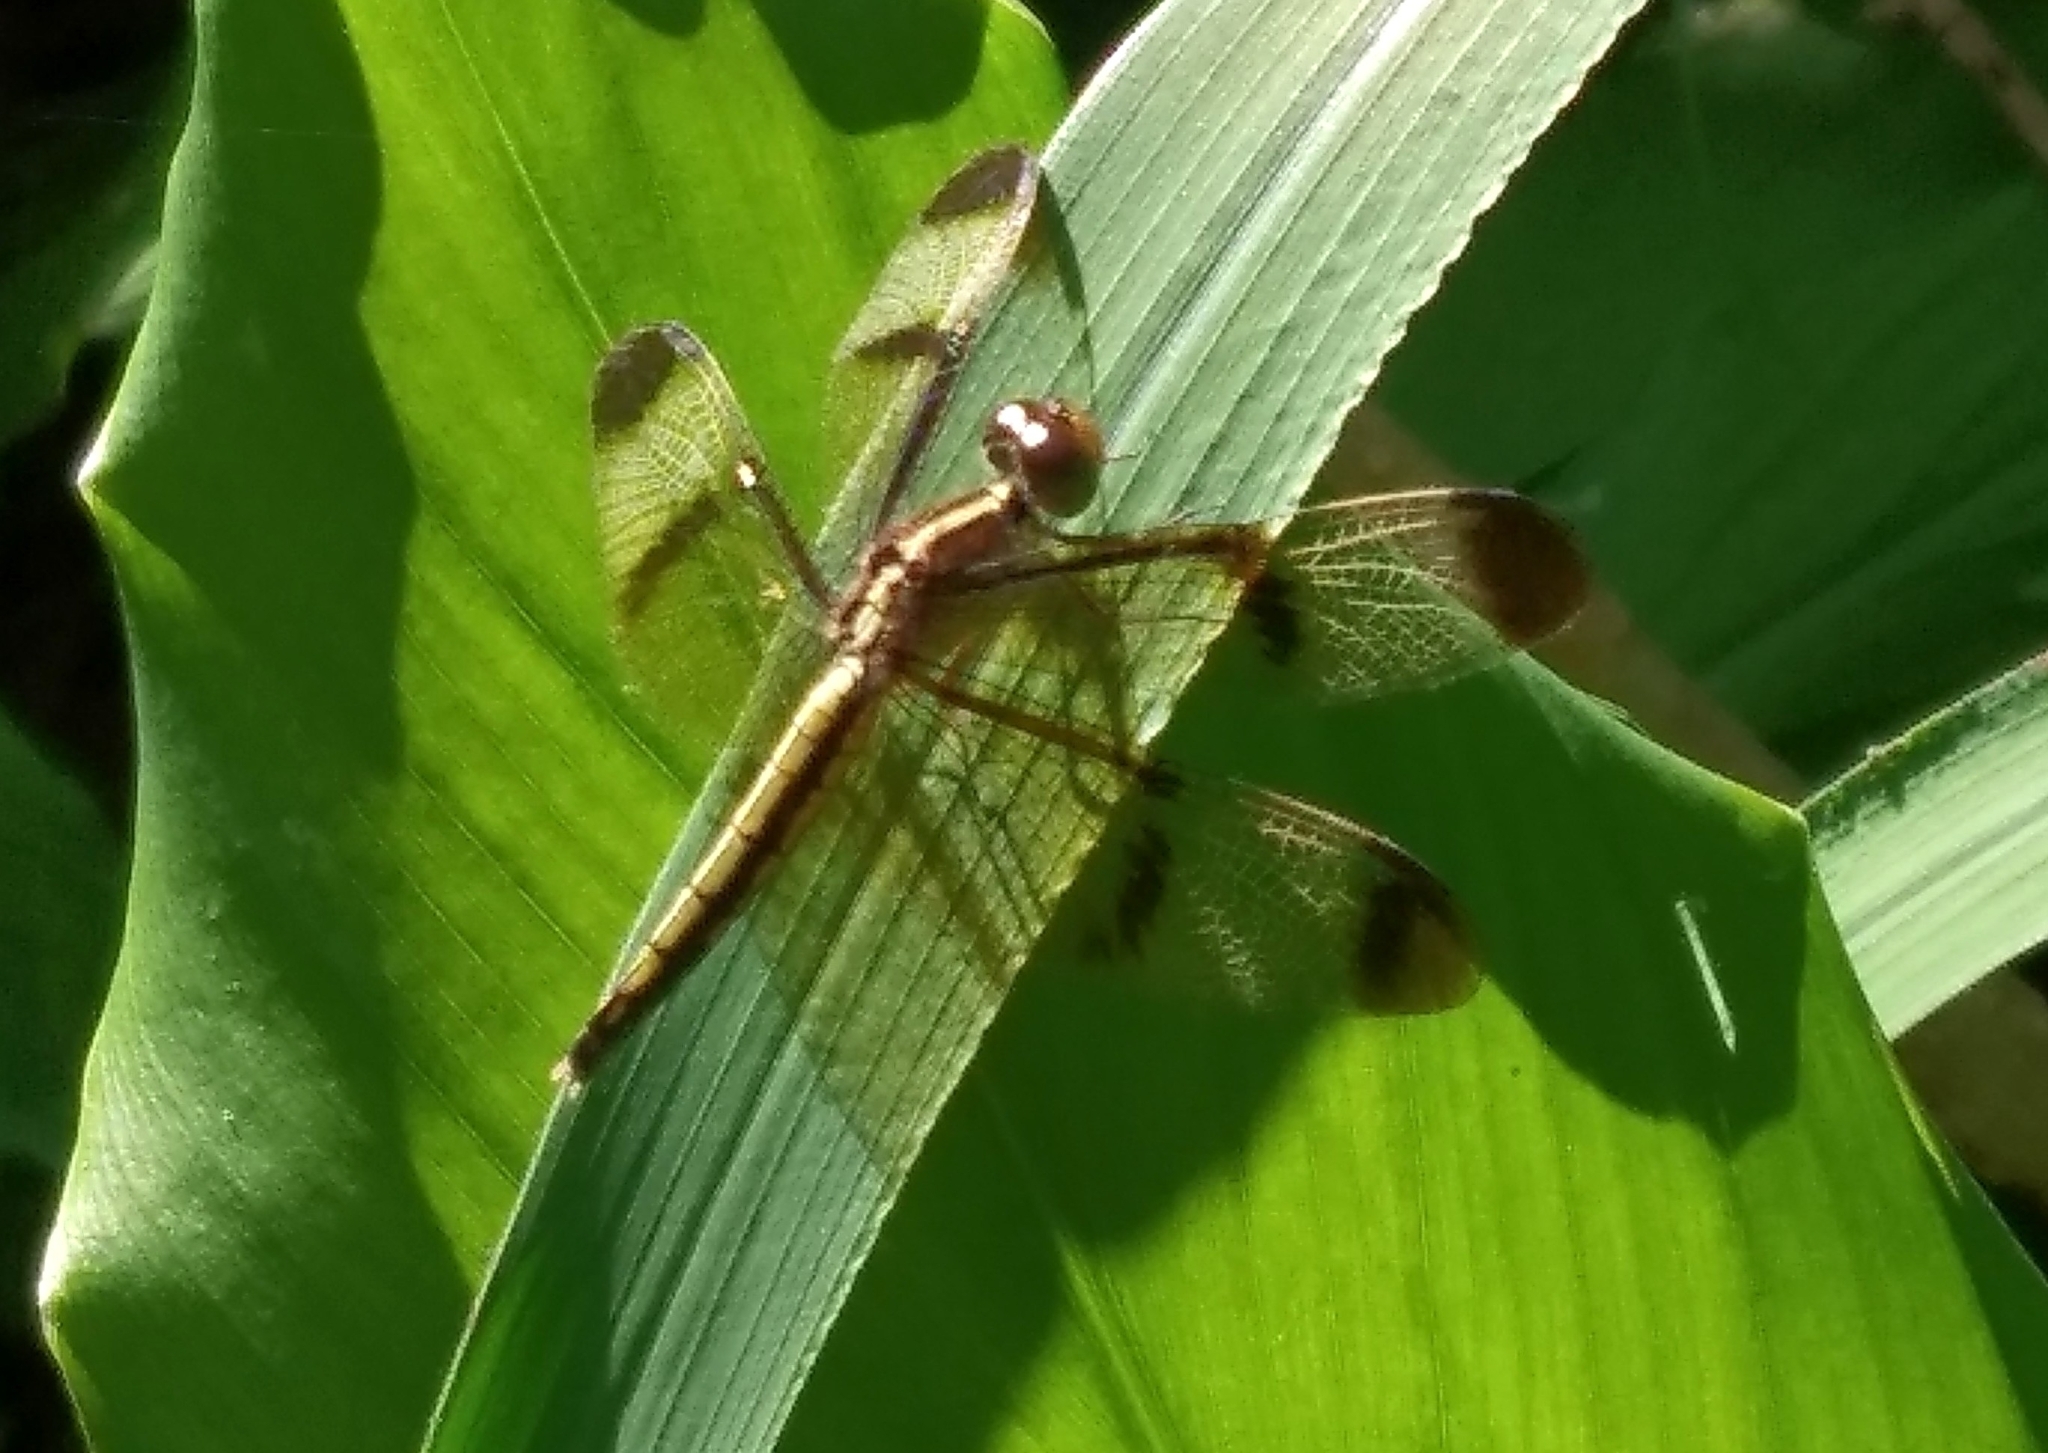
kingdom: Animalia
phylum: Arthropoda
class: Insecta
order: Odonata
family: Libellulidae
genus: Neurothemis
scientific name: Neurothemis tullia
